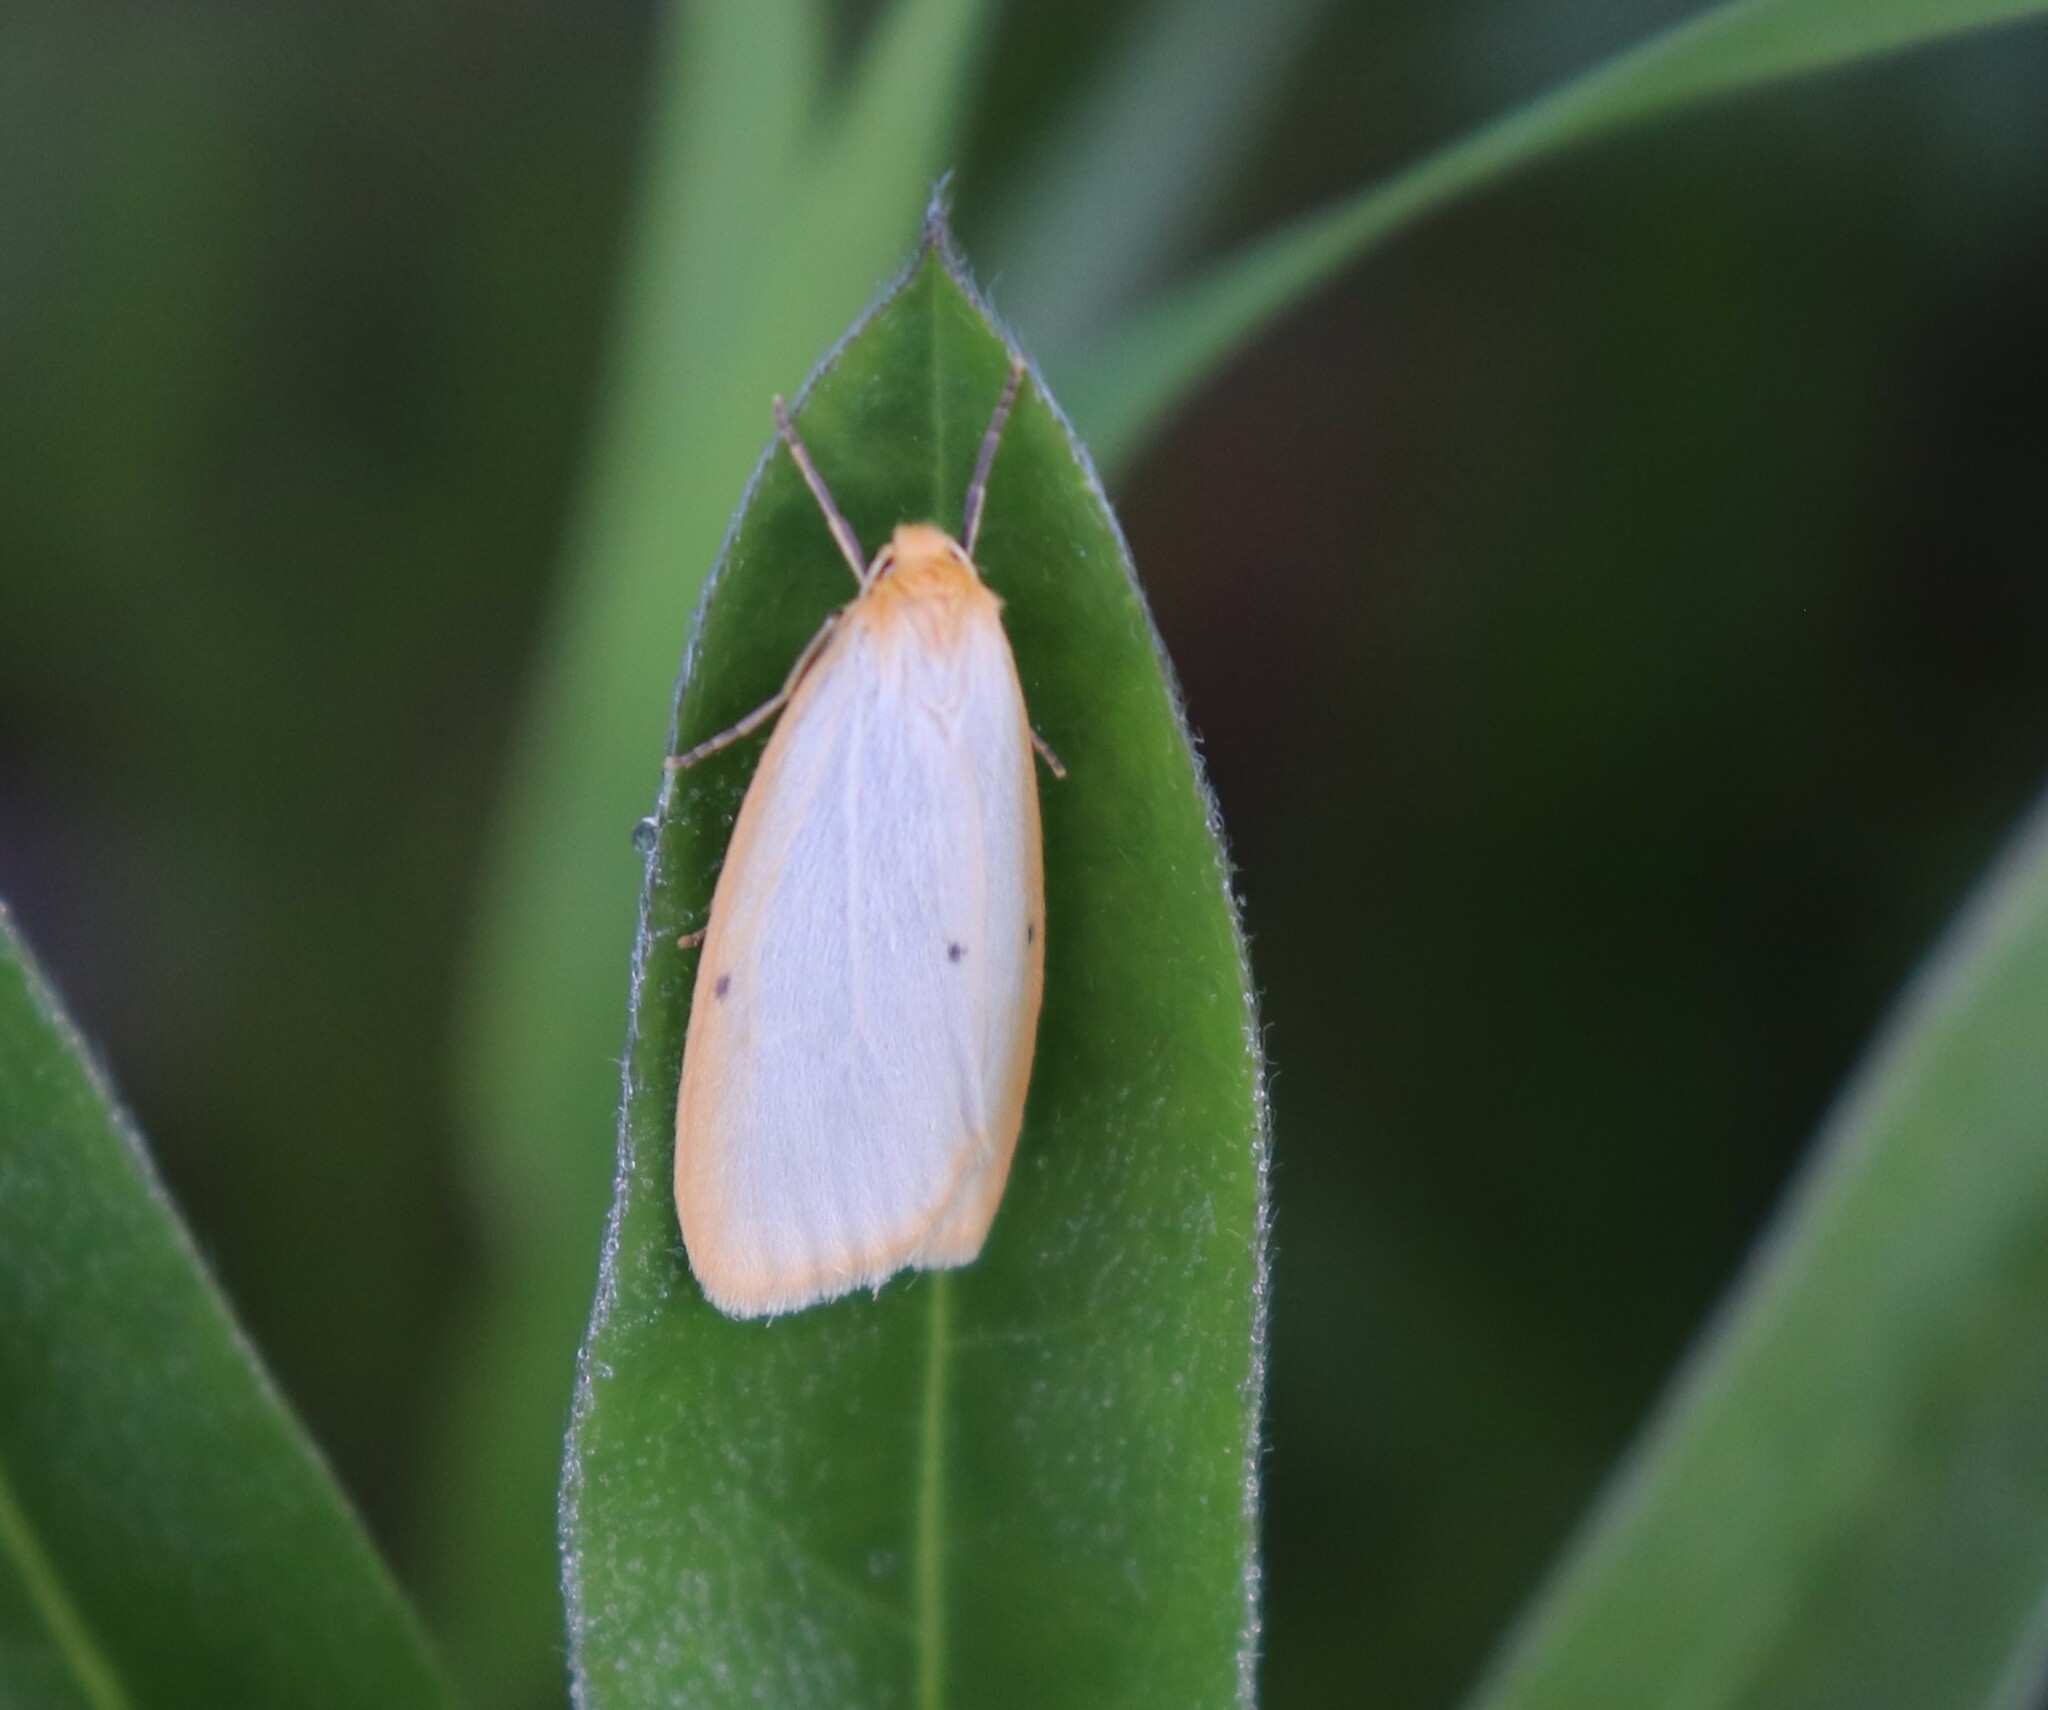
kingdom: Animalia
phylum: Arthropoda
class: Insecta
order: Lepidoptera
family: Erebidae
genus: Cybosia
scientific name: Cybosia mesomella
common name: Four-dotted footman
